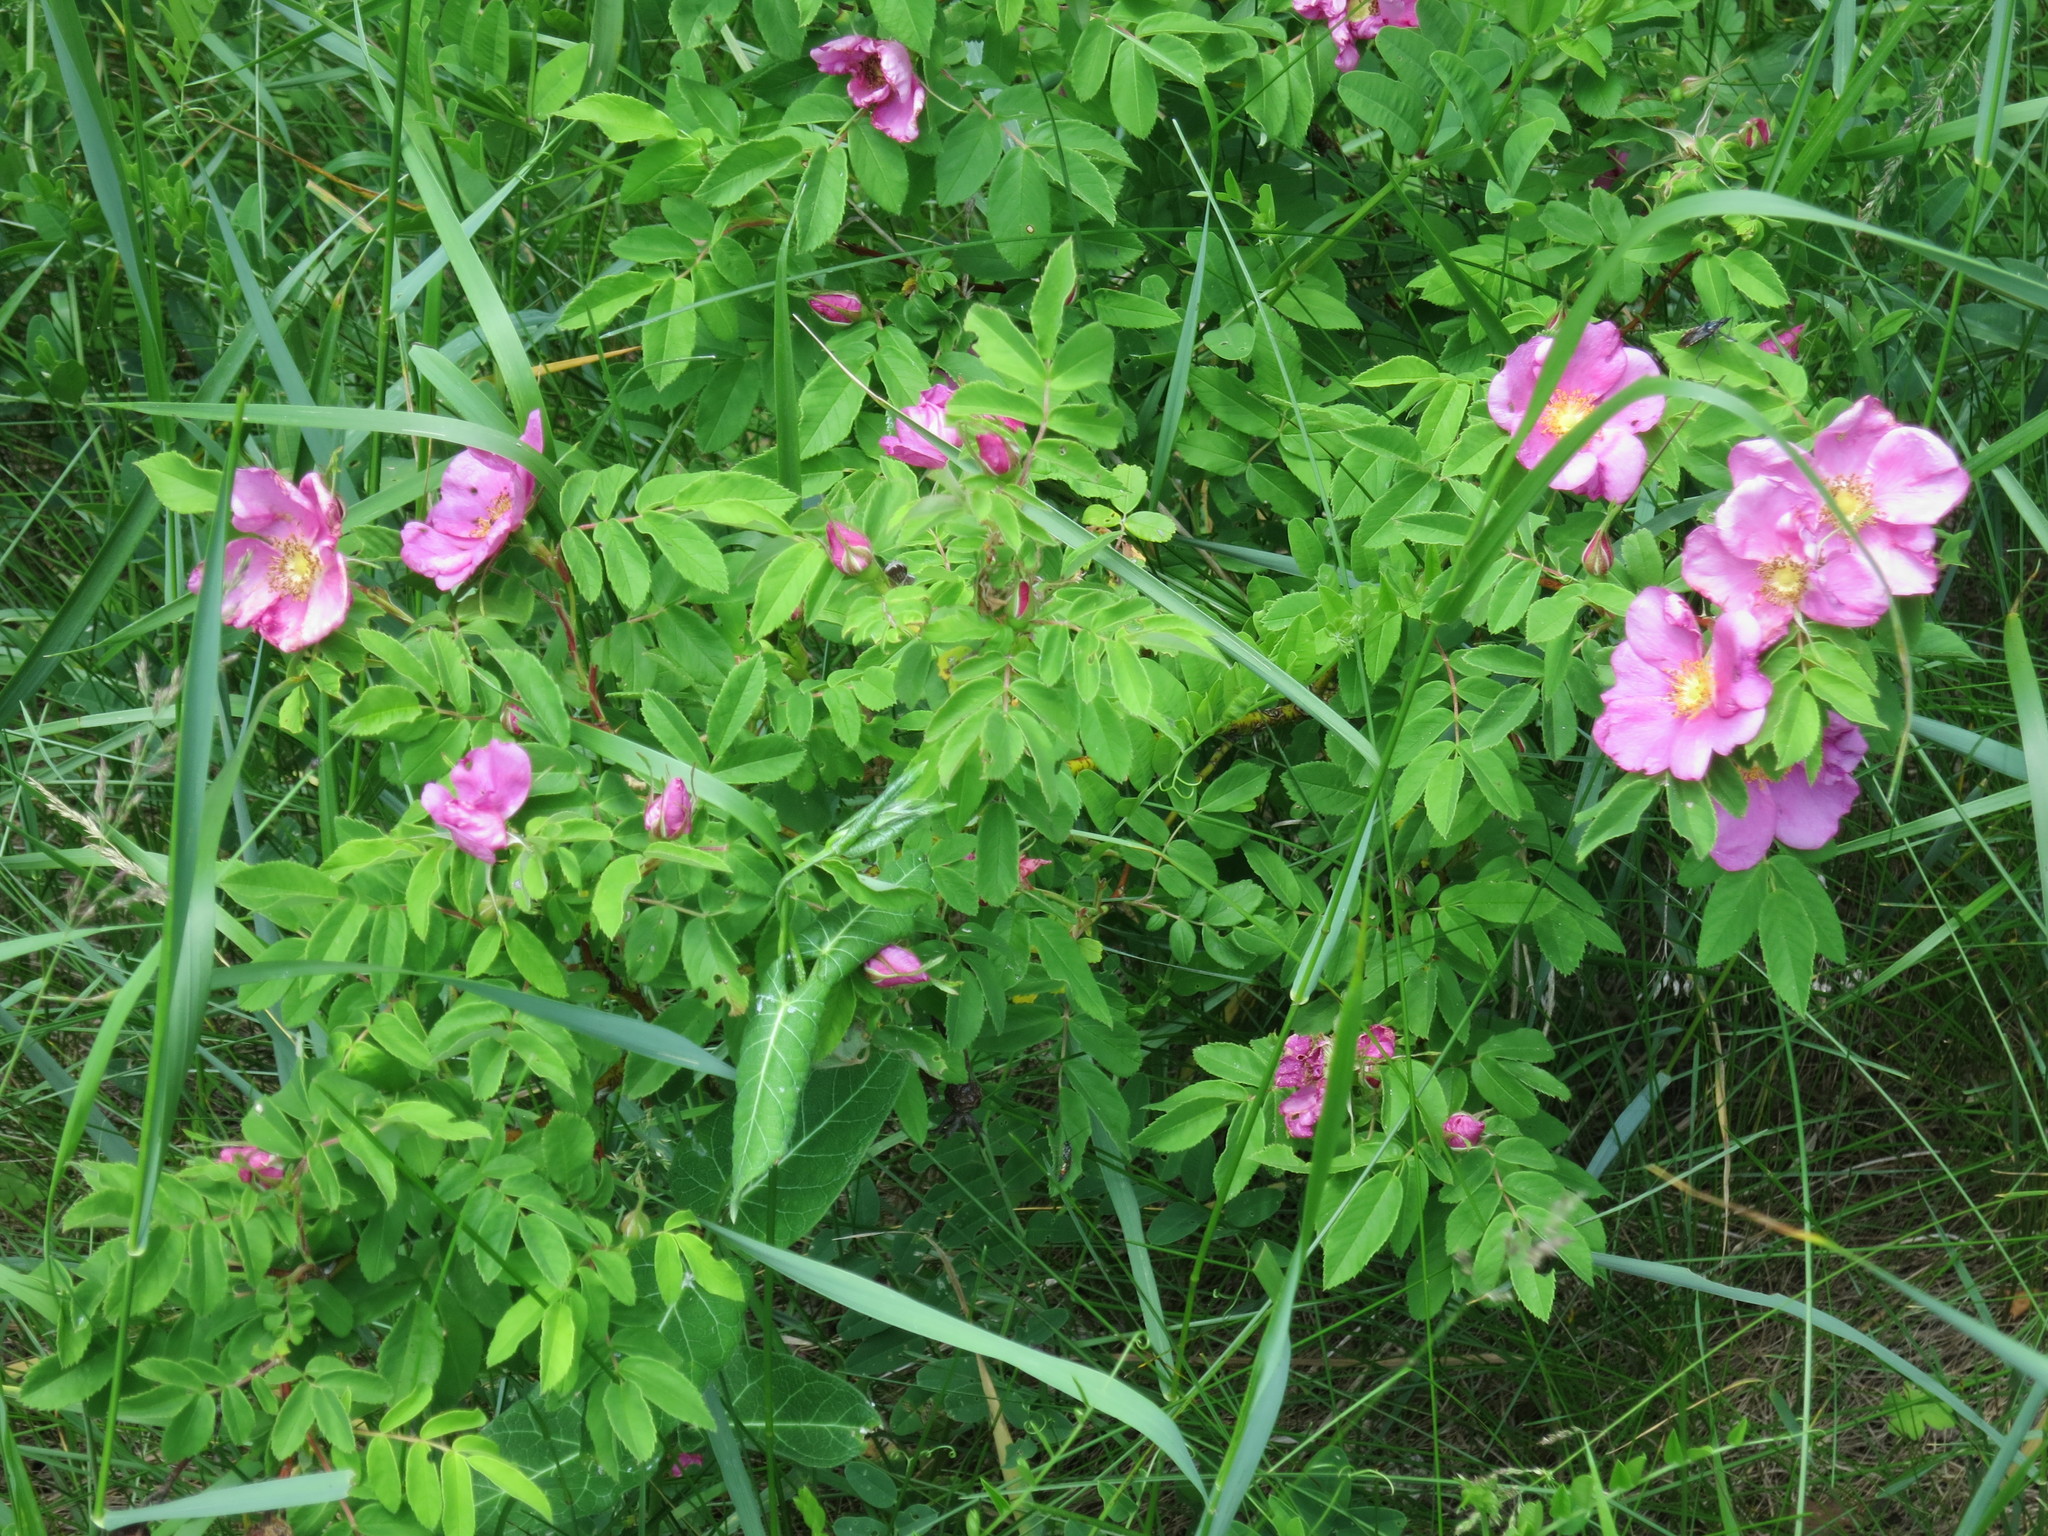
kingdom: Plantae
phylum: Tracheophyta
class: Magnoliopsida
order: Rosales
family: Rosaceae
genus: Rosa
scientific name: Rosa davurica
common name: Amur rose
